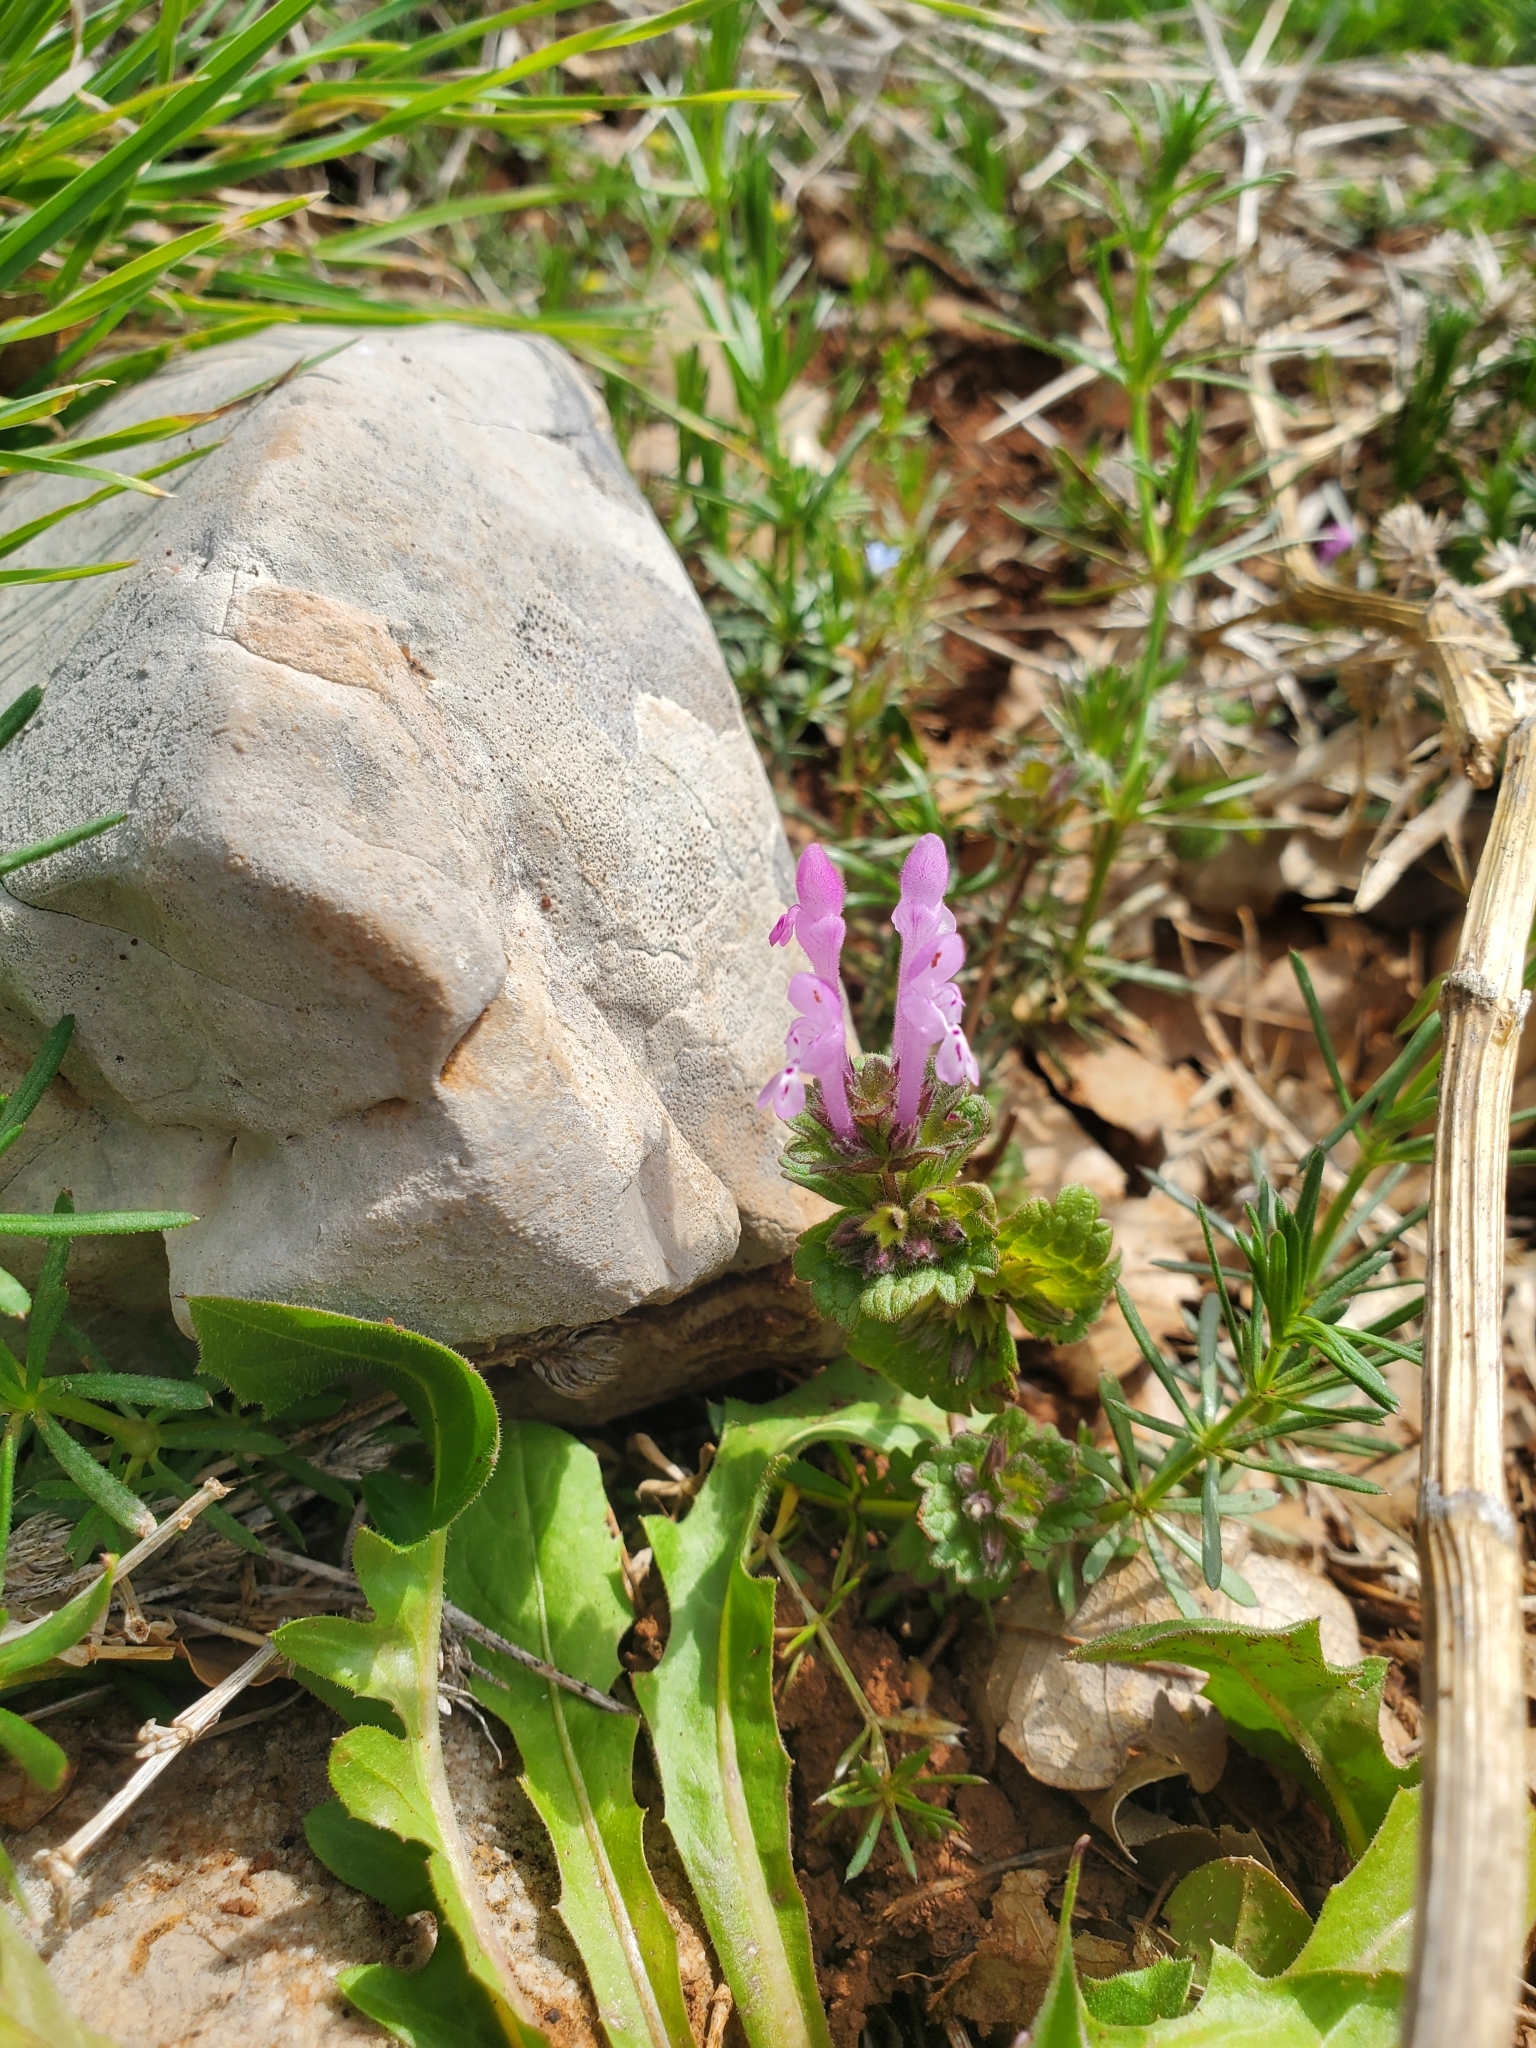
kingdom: Plantae
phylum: Tracheophyta
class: Magnoliopsida
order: Lamiales
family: Lamiaceae
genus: Lamium
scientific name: Lamium amplexicaule
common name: Henbit dead-nettle
